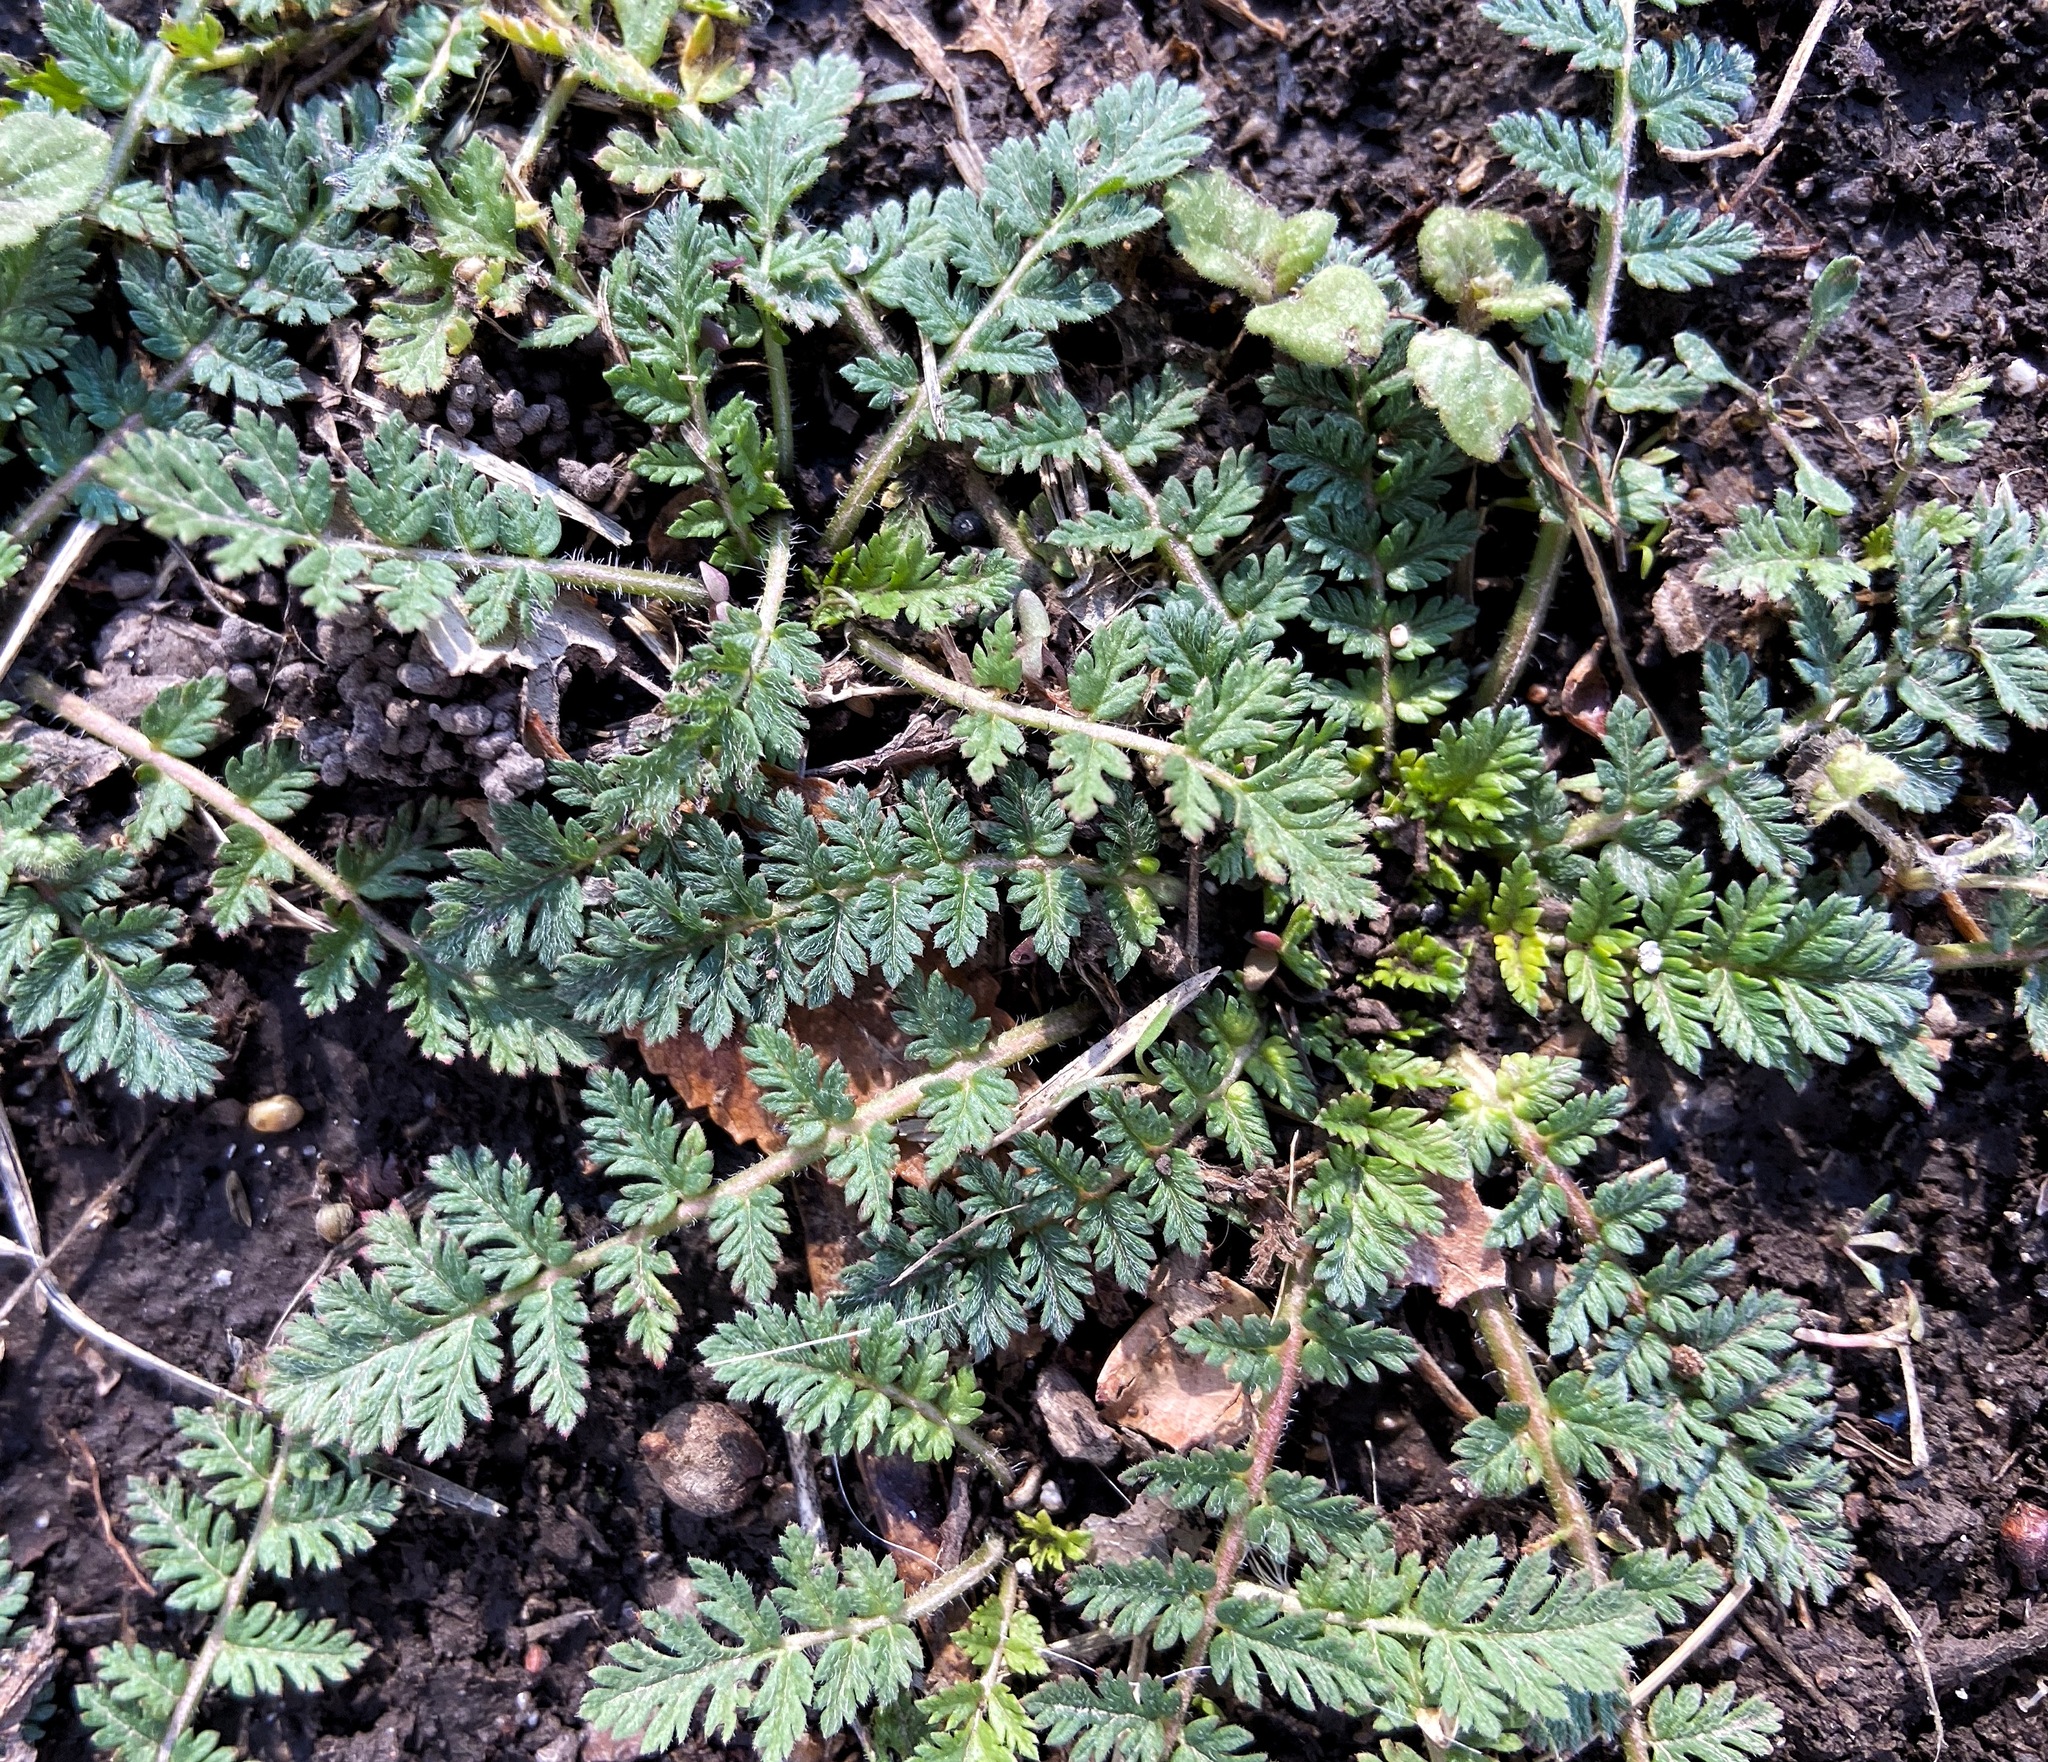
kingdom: Plantae
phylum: Tracheophyta
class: Magnoliopsida
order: Geraniales
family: Geraniaceae
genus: Erodium
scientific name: Erodium cicutarium
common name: Common stork's-bill
